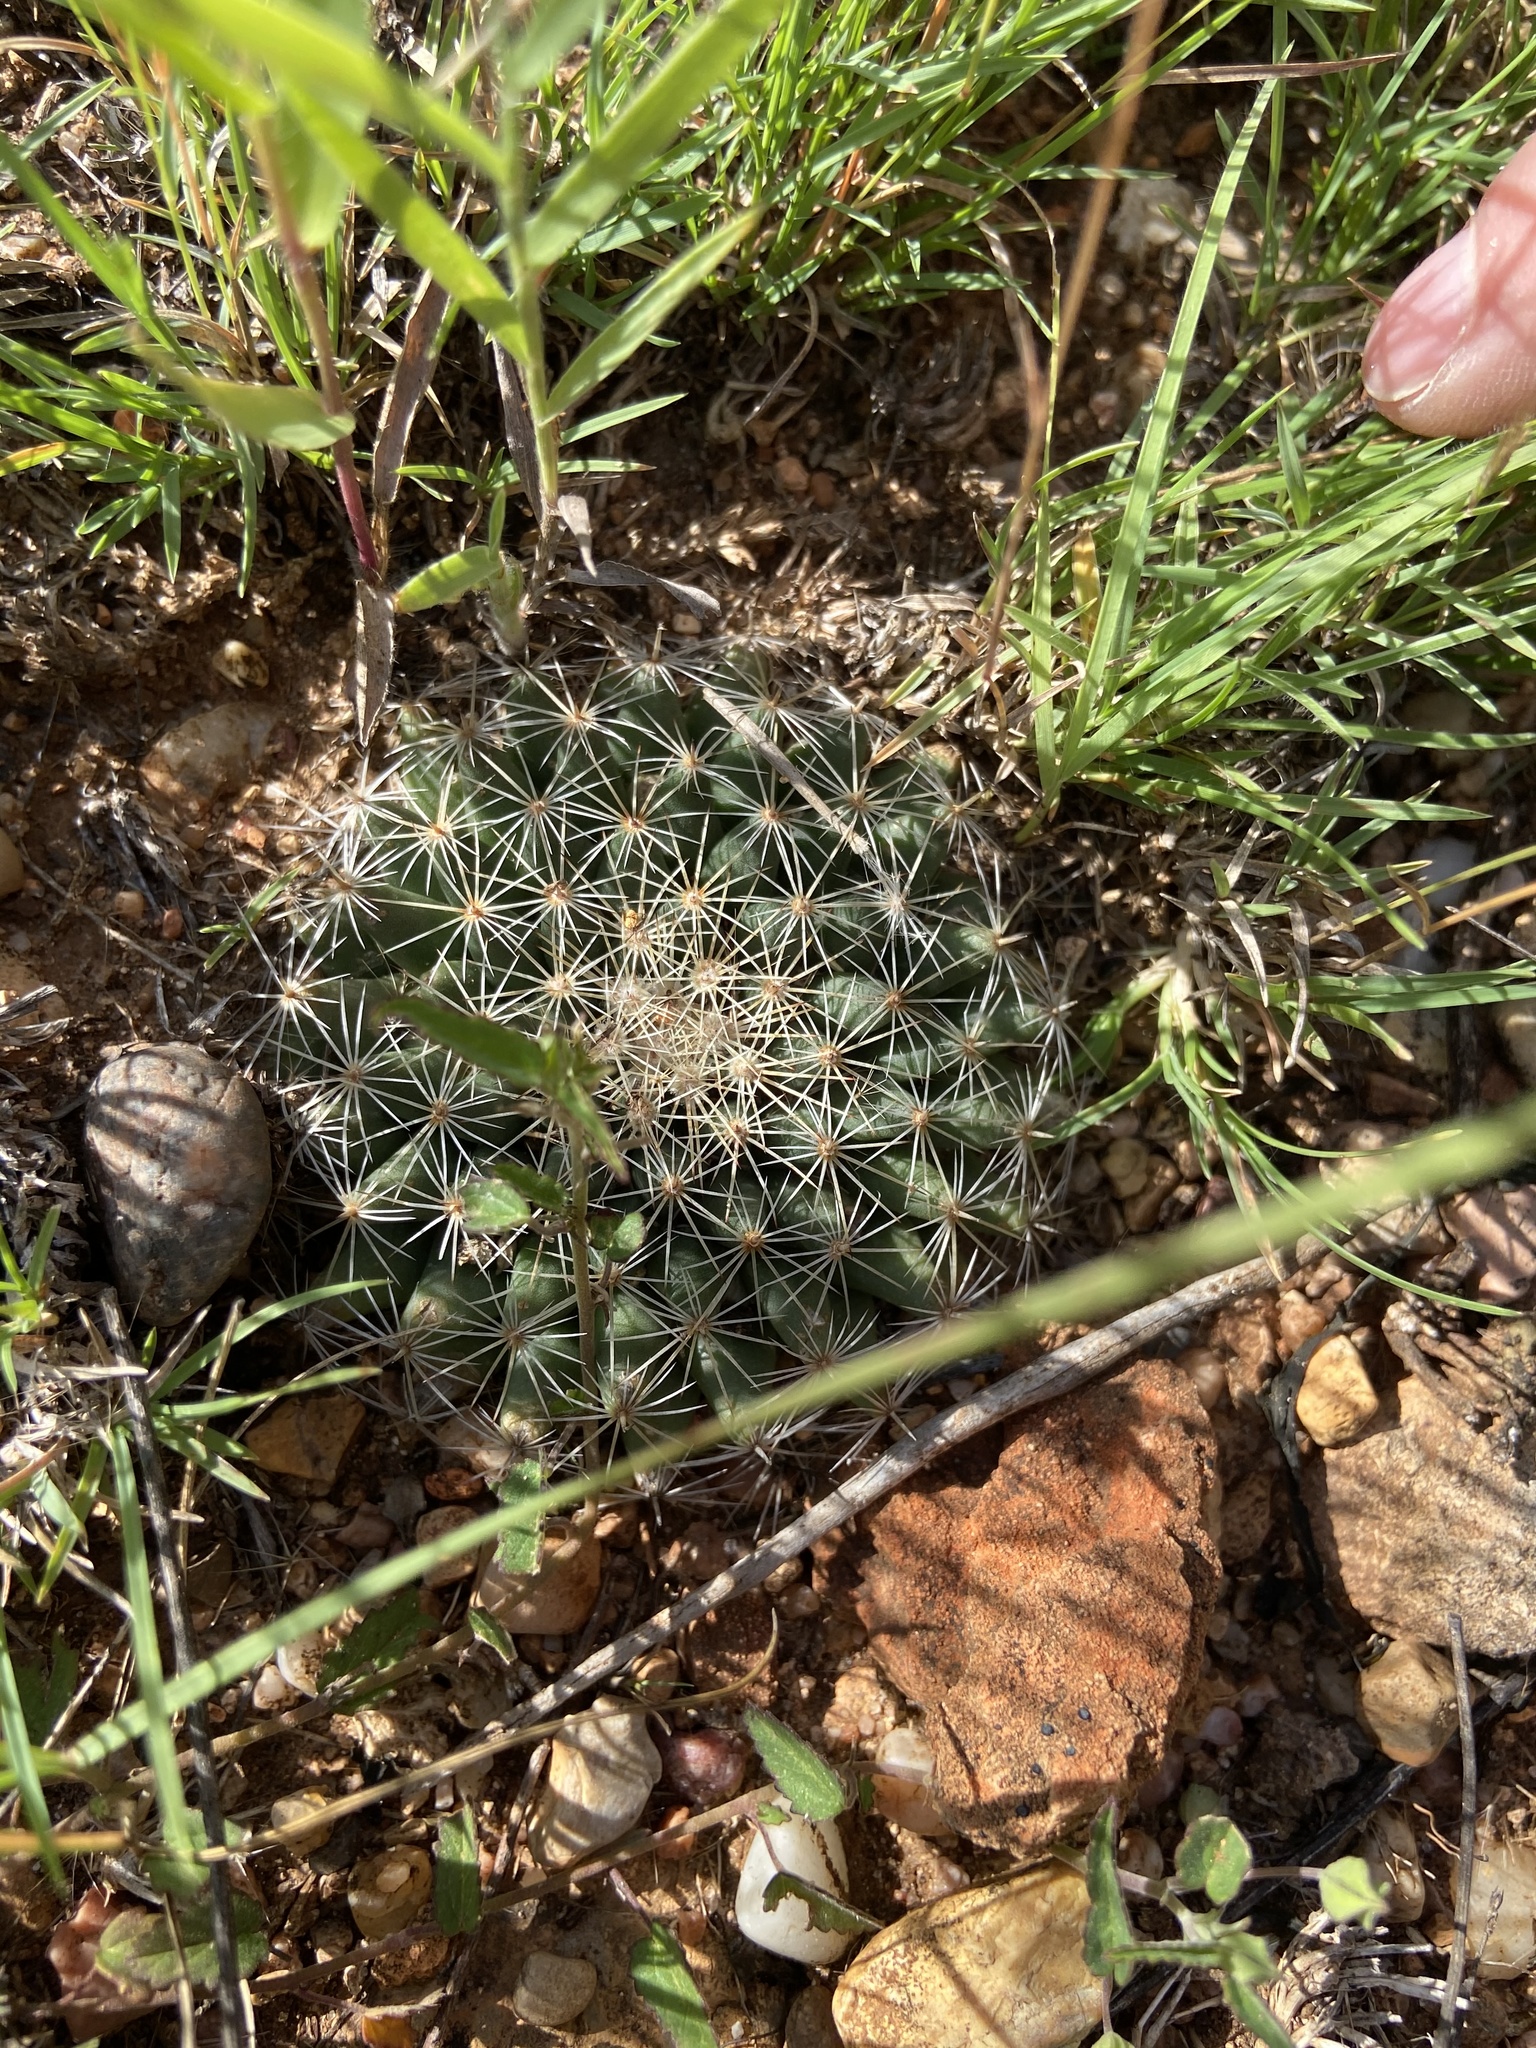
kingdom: Plantae
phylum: Tracheophyta
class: Magnoliopsida
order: Caryophyllales
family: Cactaceae
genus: Mammillaria
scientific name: Mammillaria heyderi
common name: Little nipple cactus
